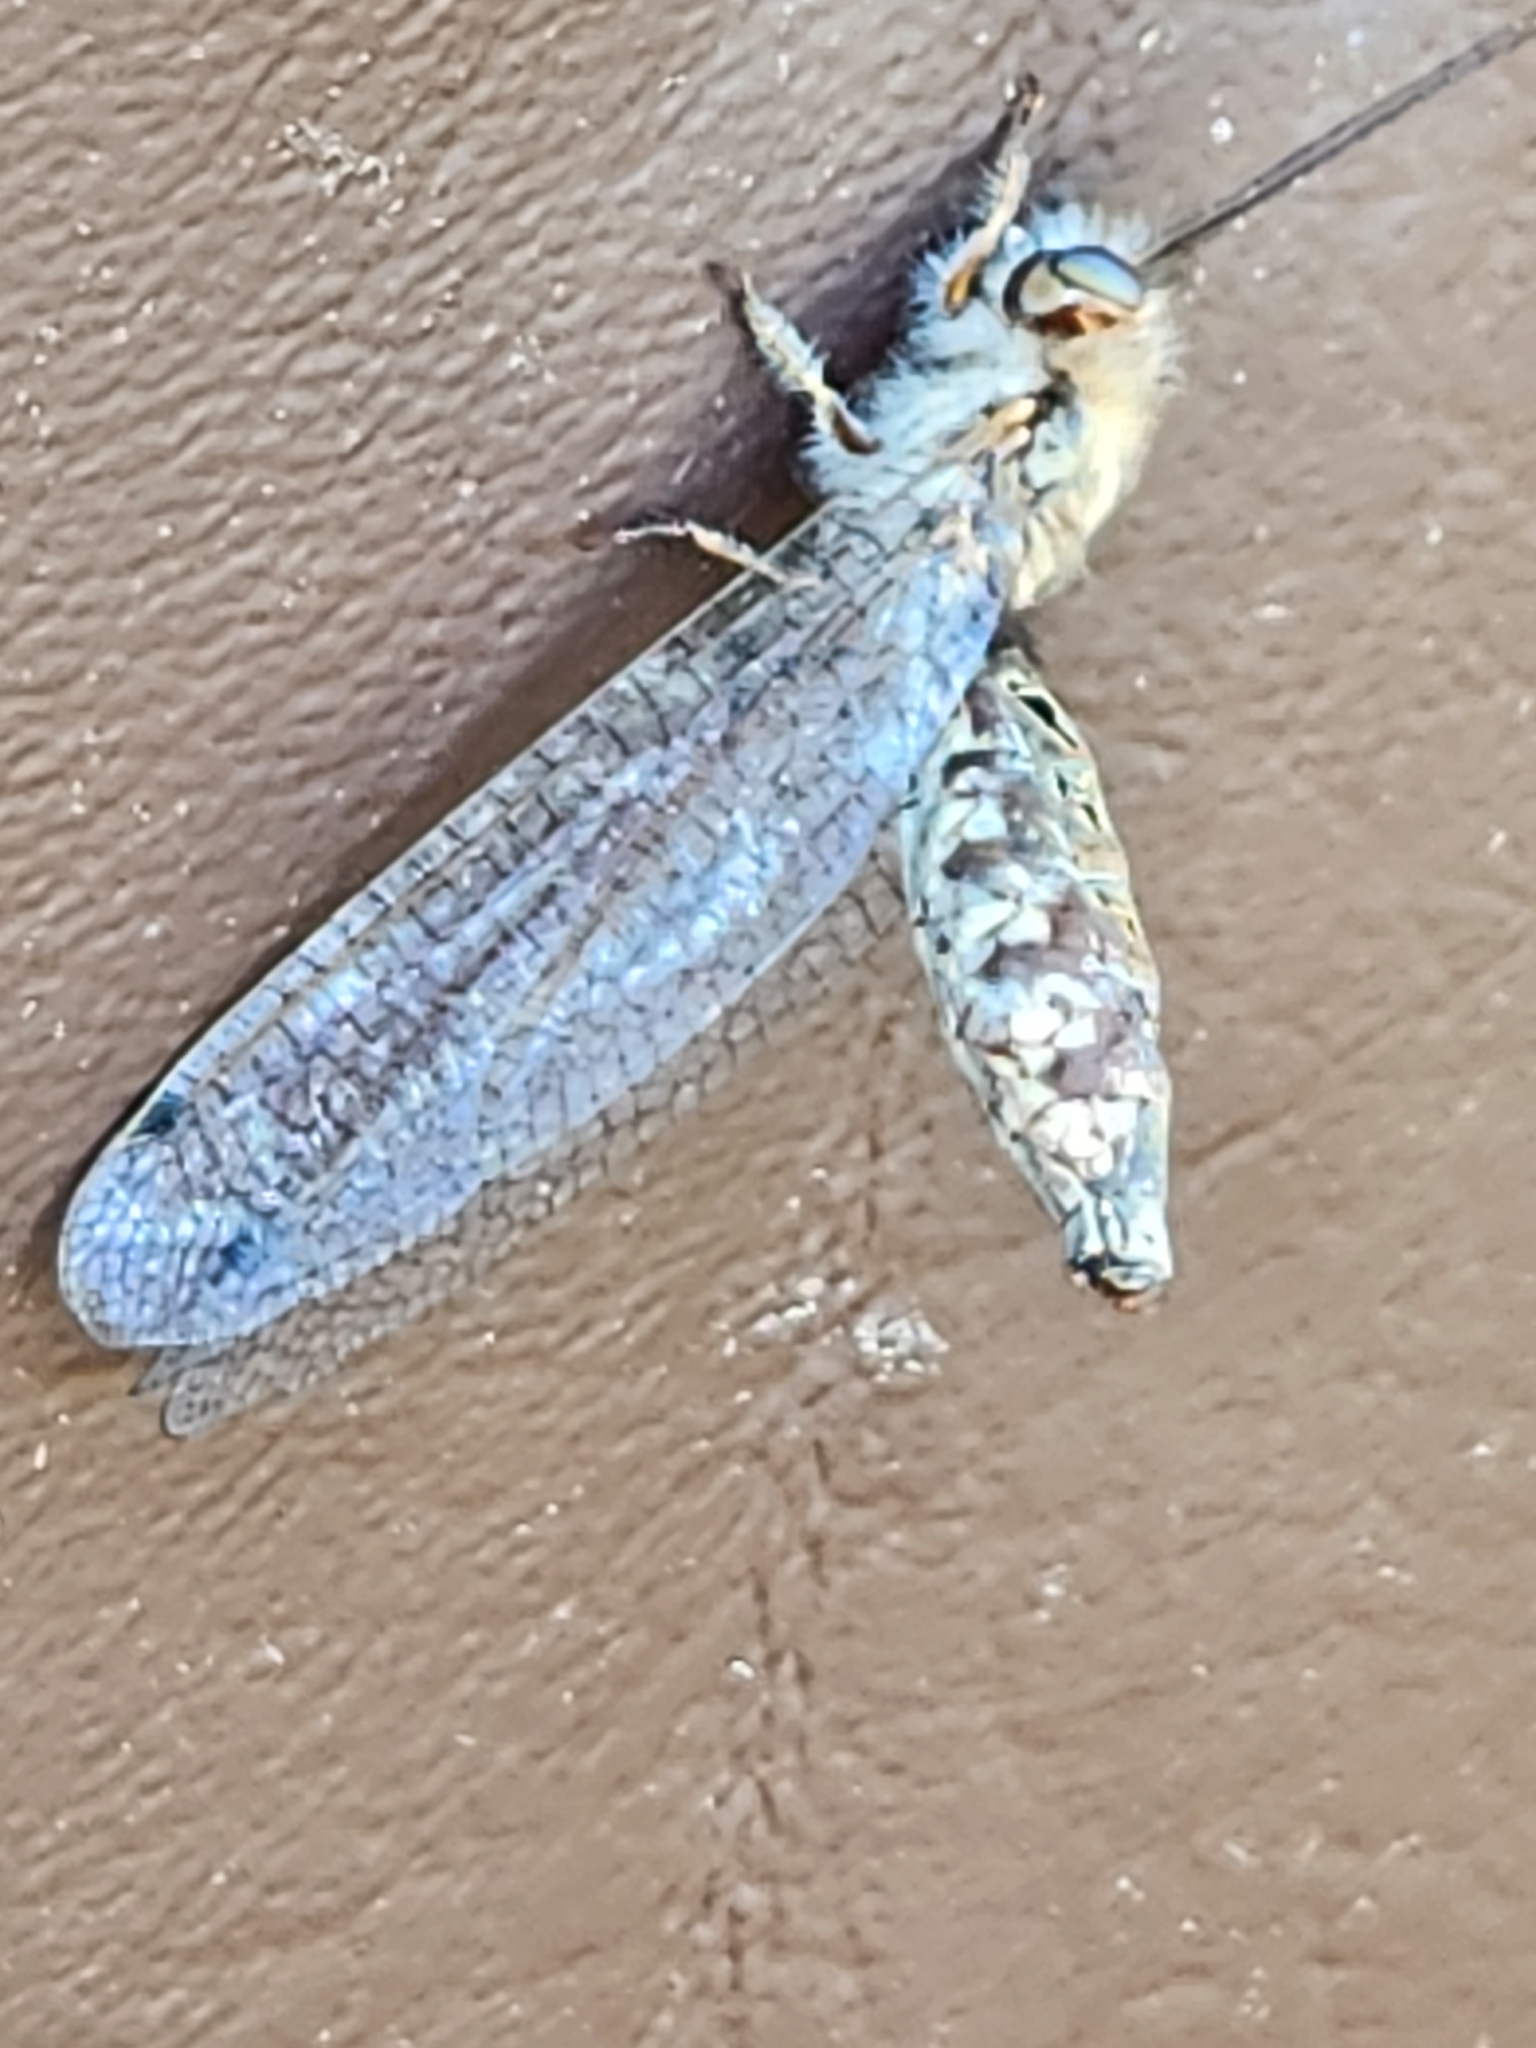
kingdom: Animalia
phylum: Arthropoda
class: Insecta
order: Neuroptera
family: Ascalaphidae
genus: Ululodes
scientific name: Ululodes macleayanus
